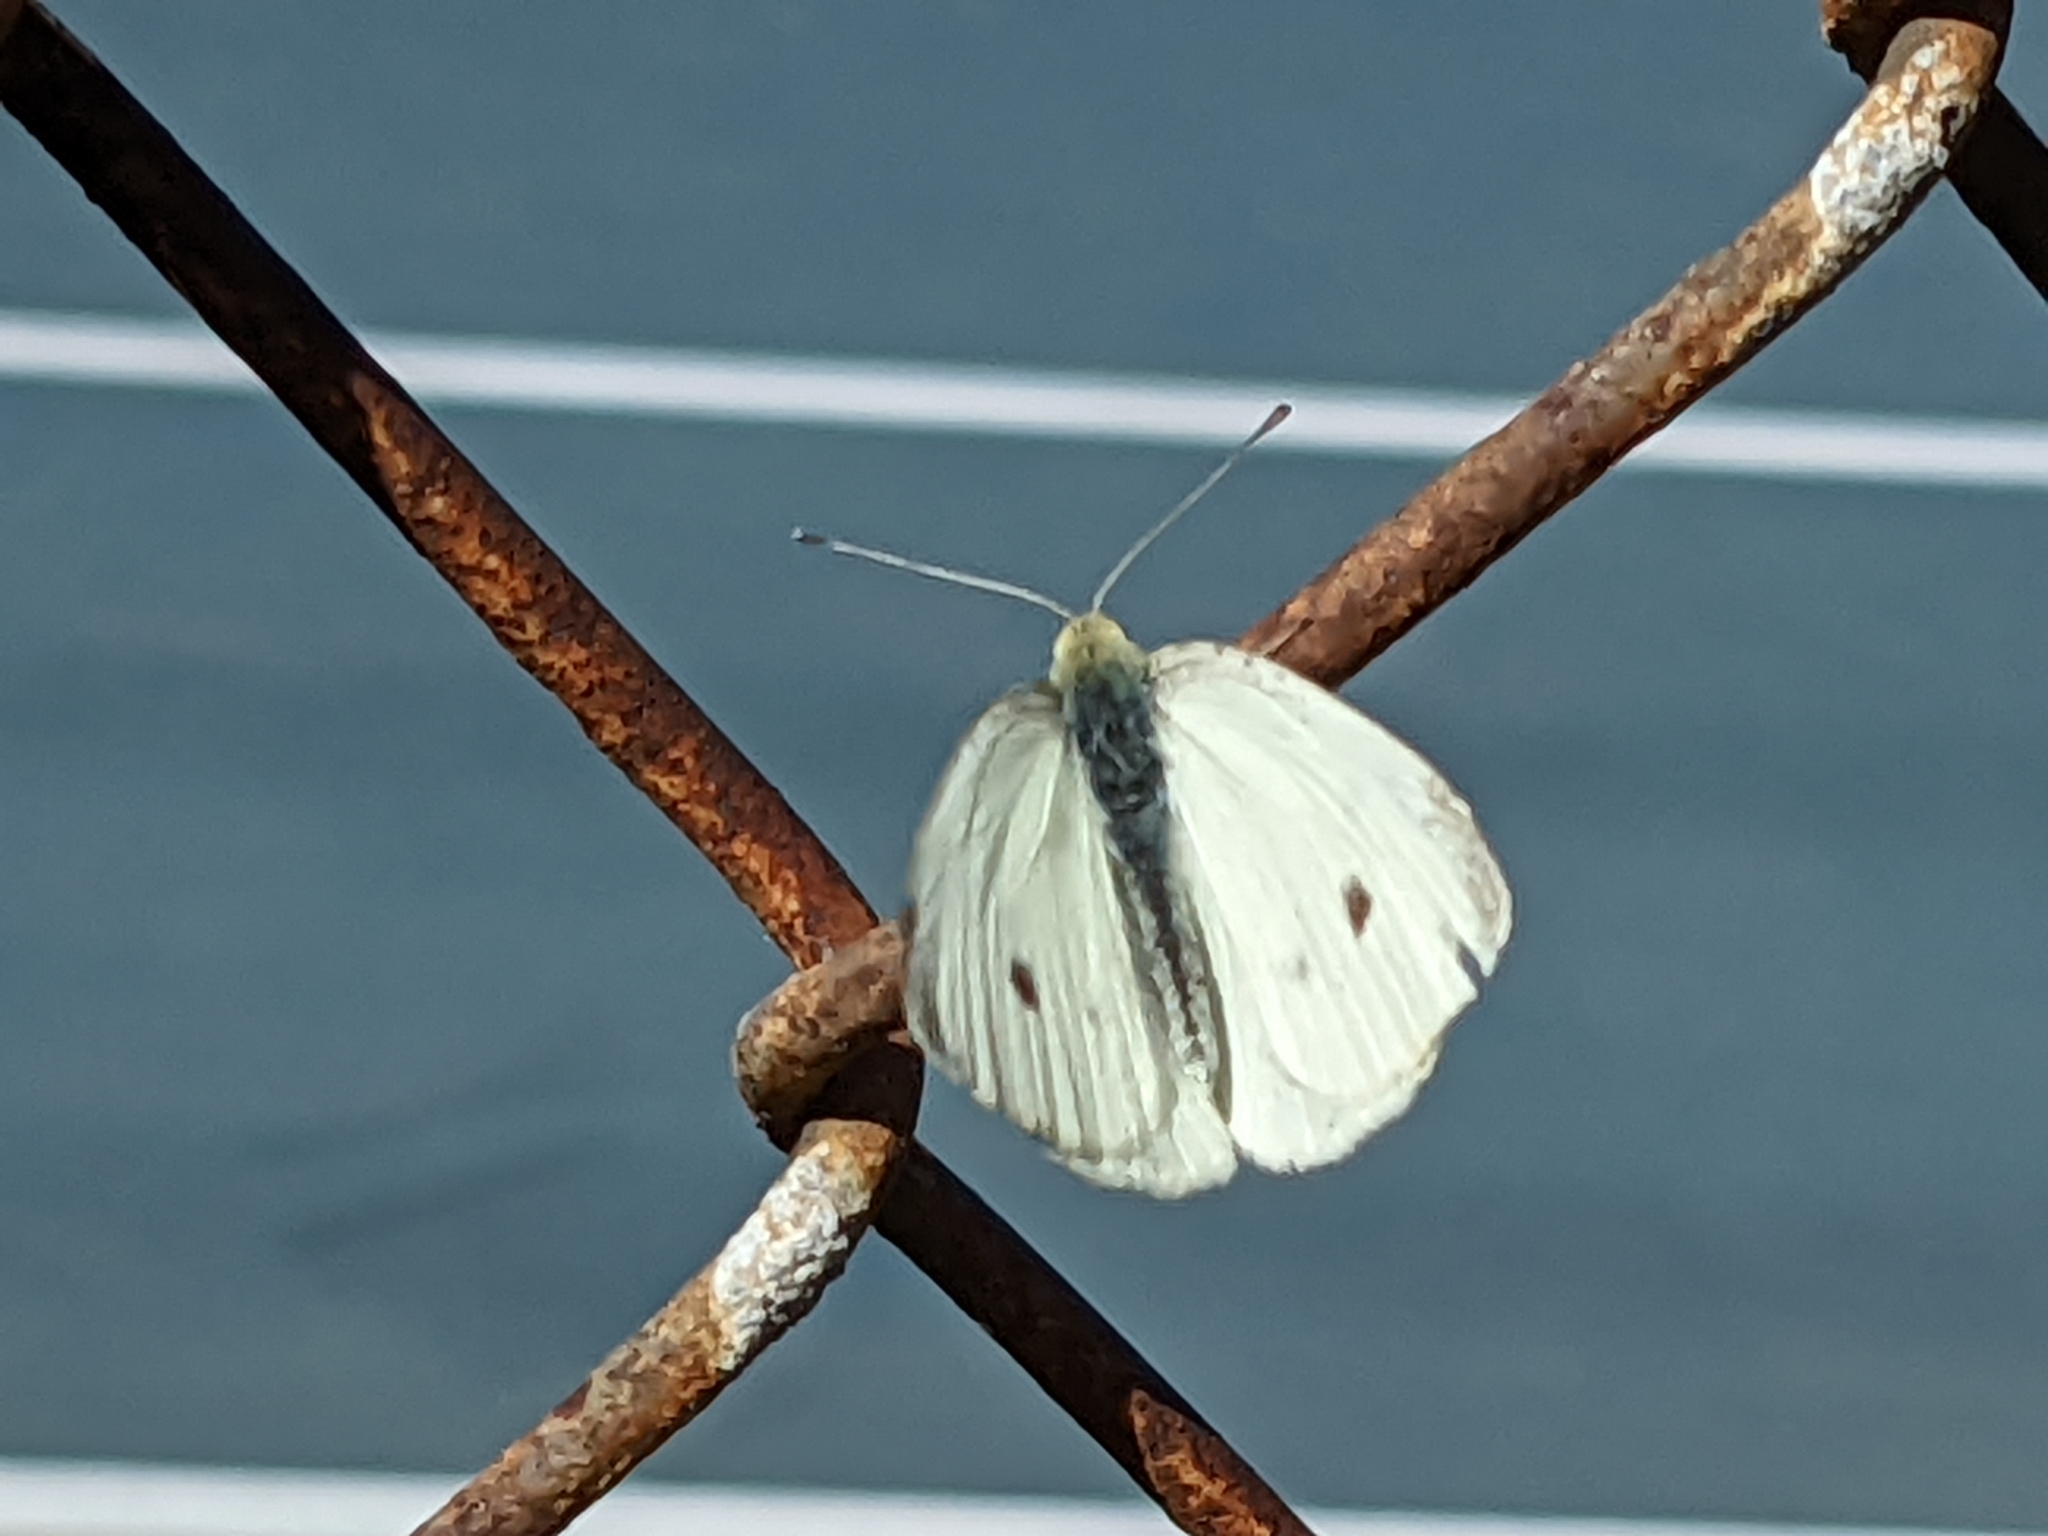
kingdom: Animalia
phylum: Arthropoda
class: Insecta
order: Lepidoptera
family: Pieridae
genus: Pieris
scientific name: Pieris rapae
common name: Small white
